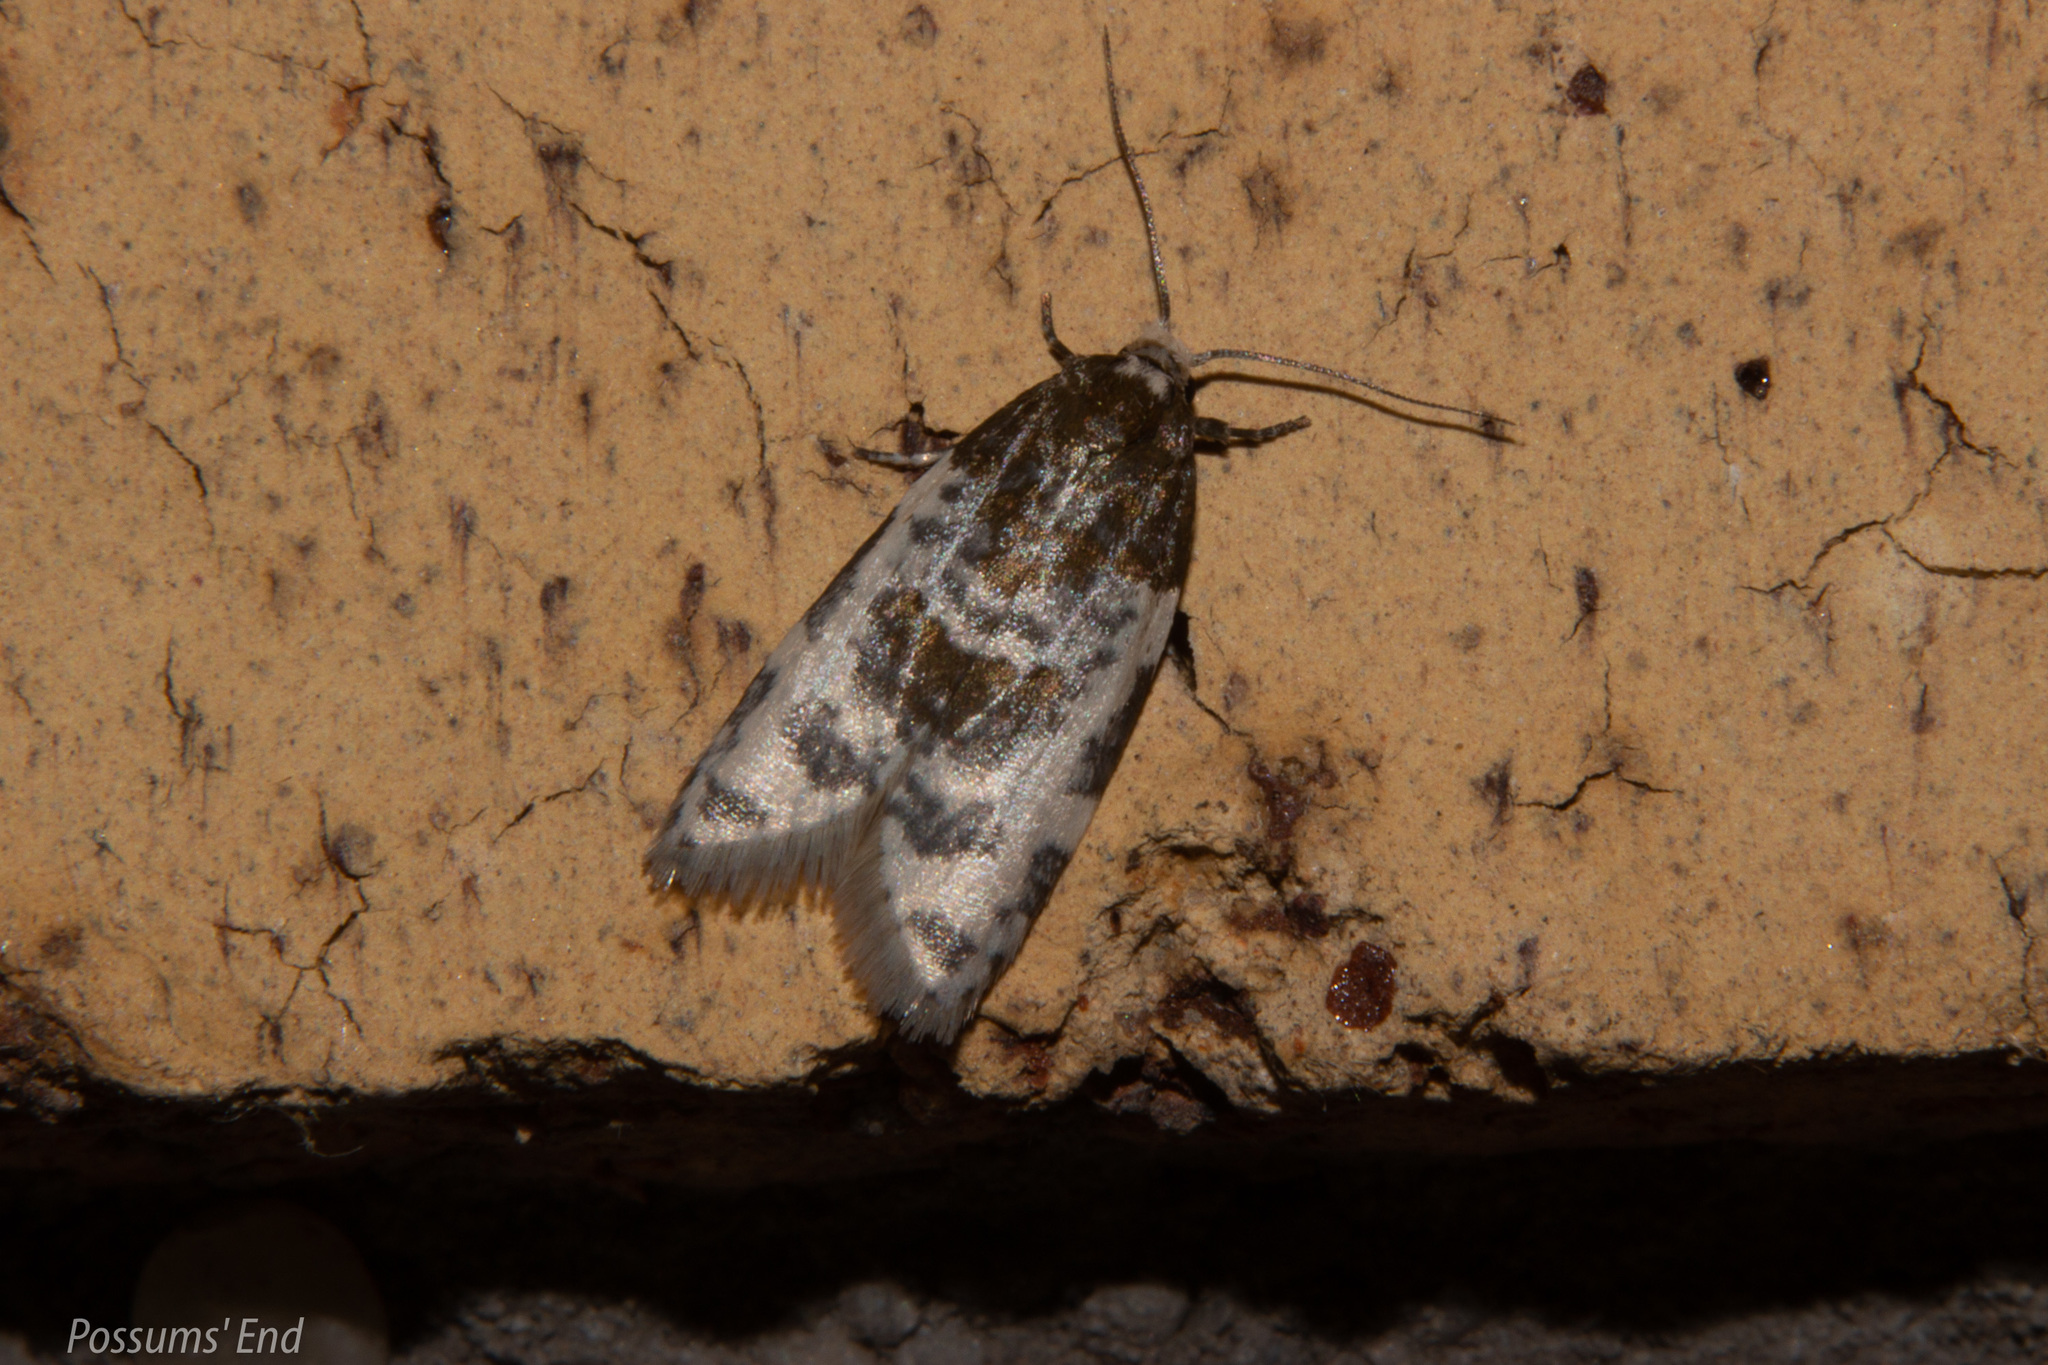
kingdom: Animalia
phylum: Arthropoda
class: Insecta
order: Lepidoptera
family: Tortricidae
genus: Prothelymna
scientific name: Prothelymna niphostrota
